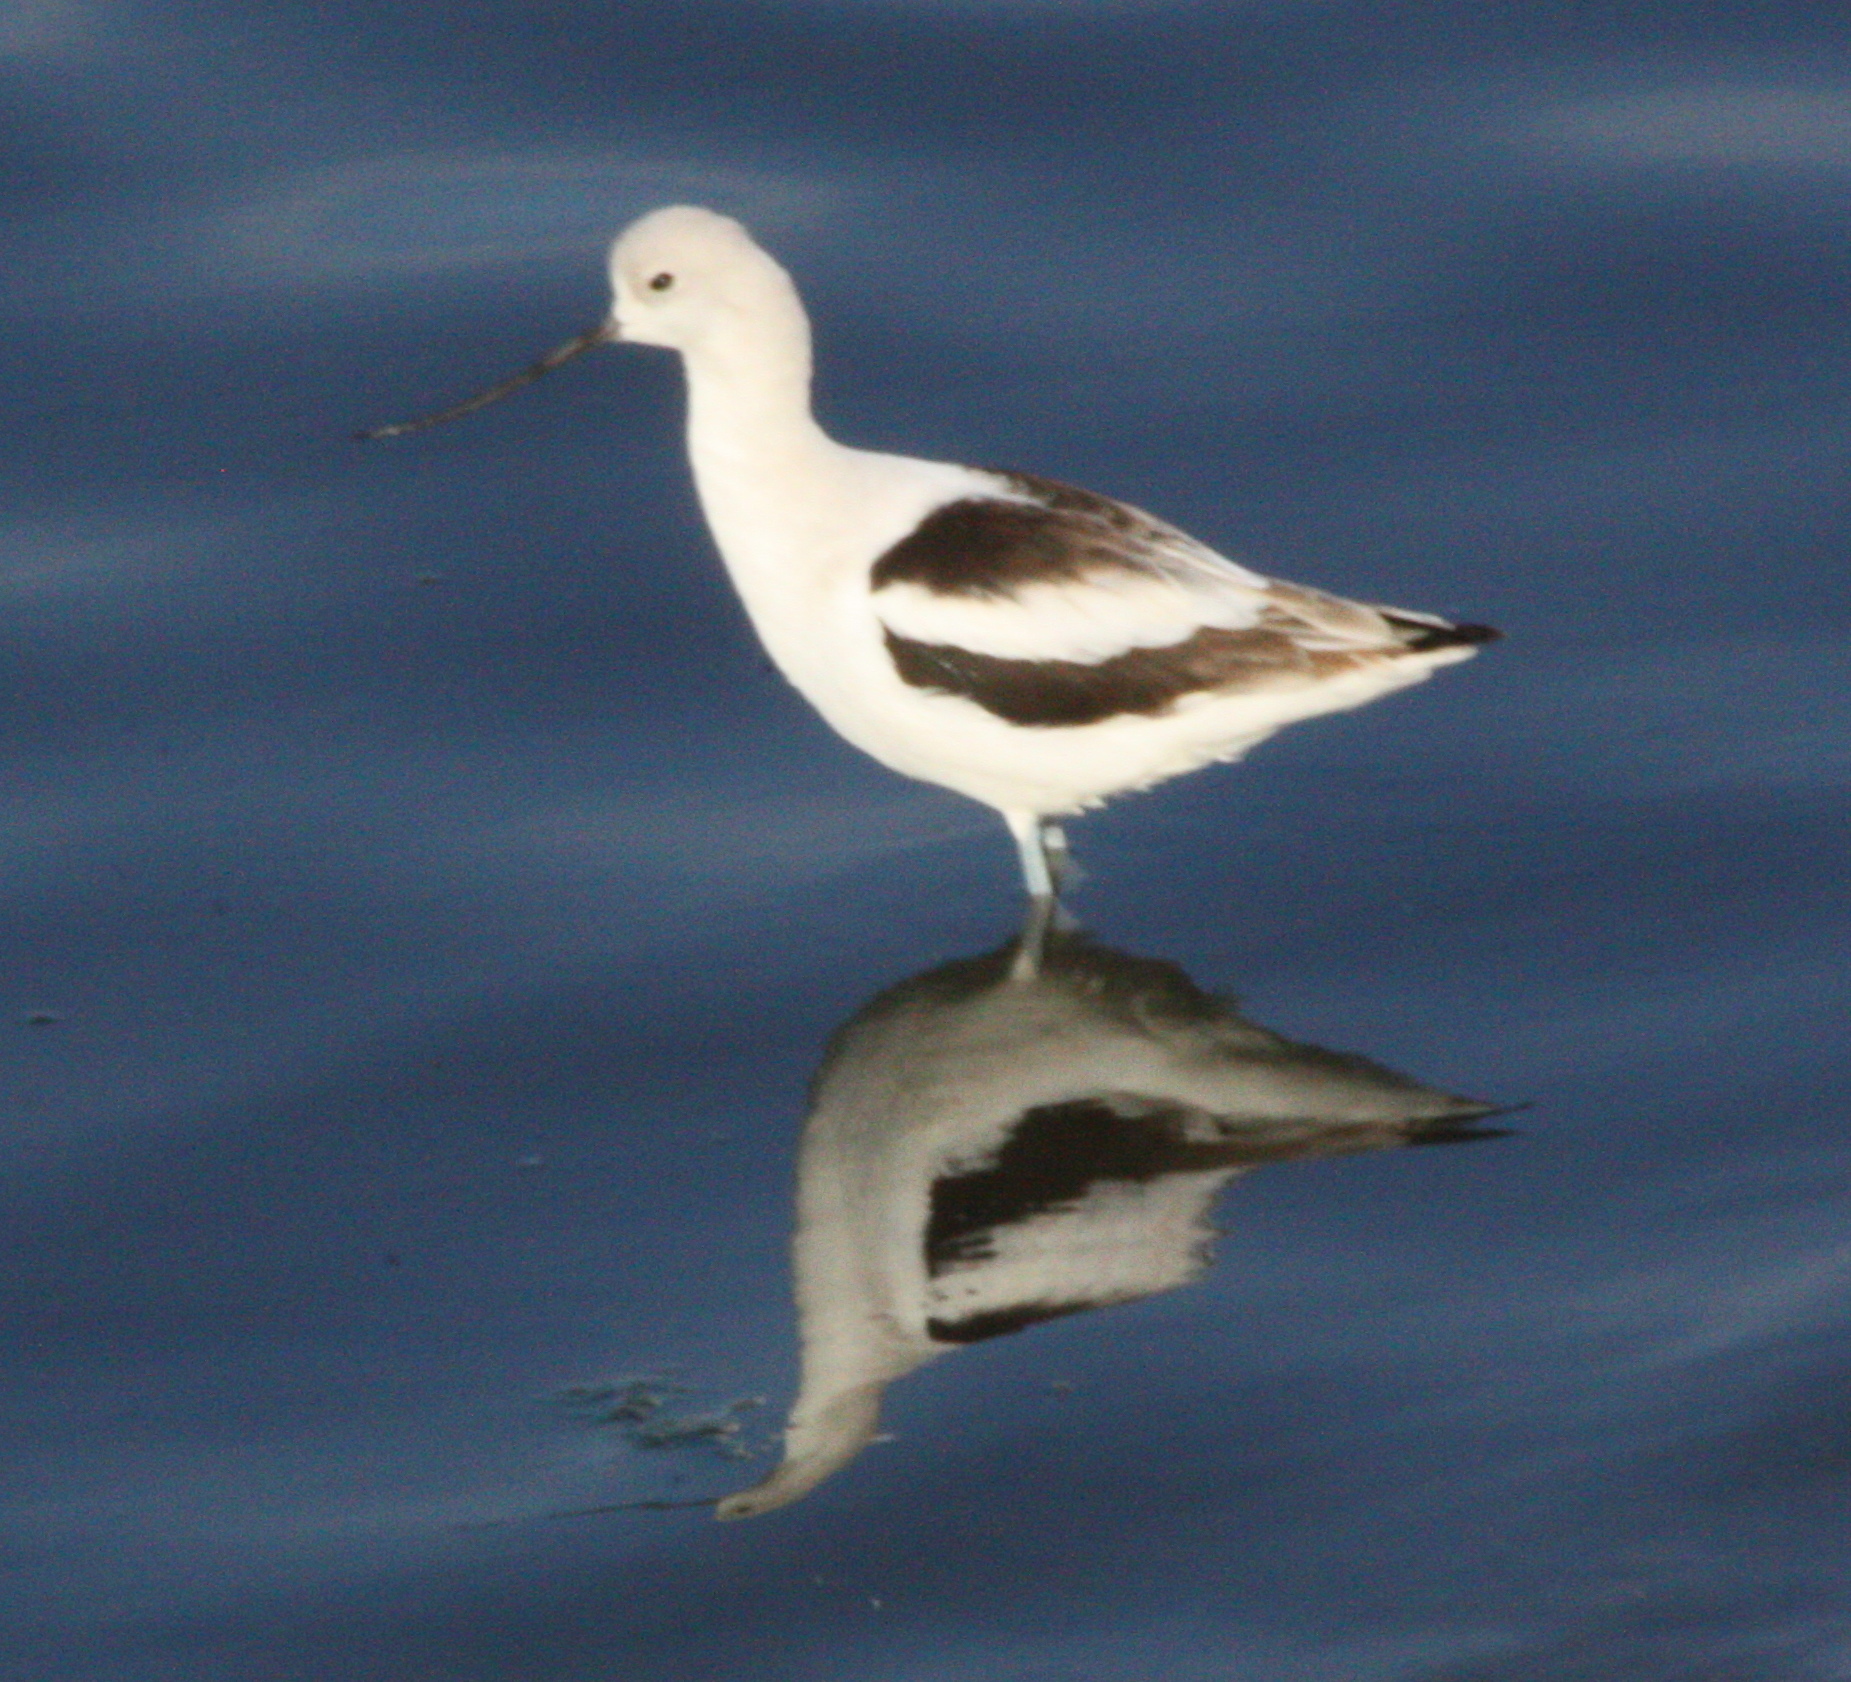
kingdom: Animalia
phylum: Chordata
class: Aves
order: Charadriiformes
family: Recurvirostridae
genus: Recurvirostra
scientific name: Recurvirostra americana
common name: American avocet
